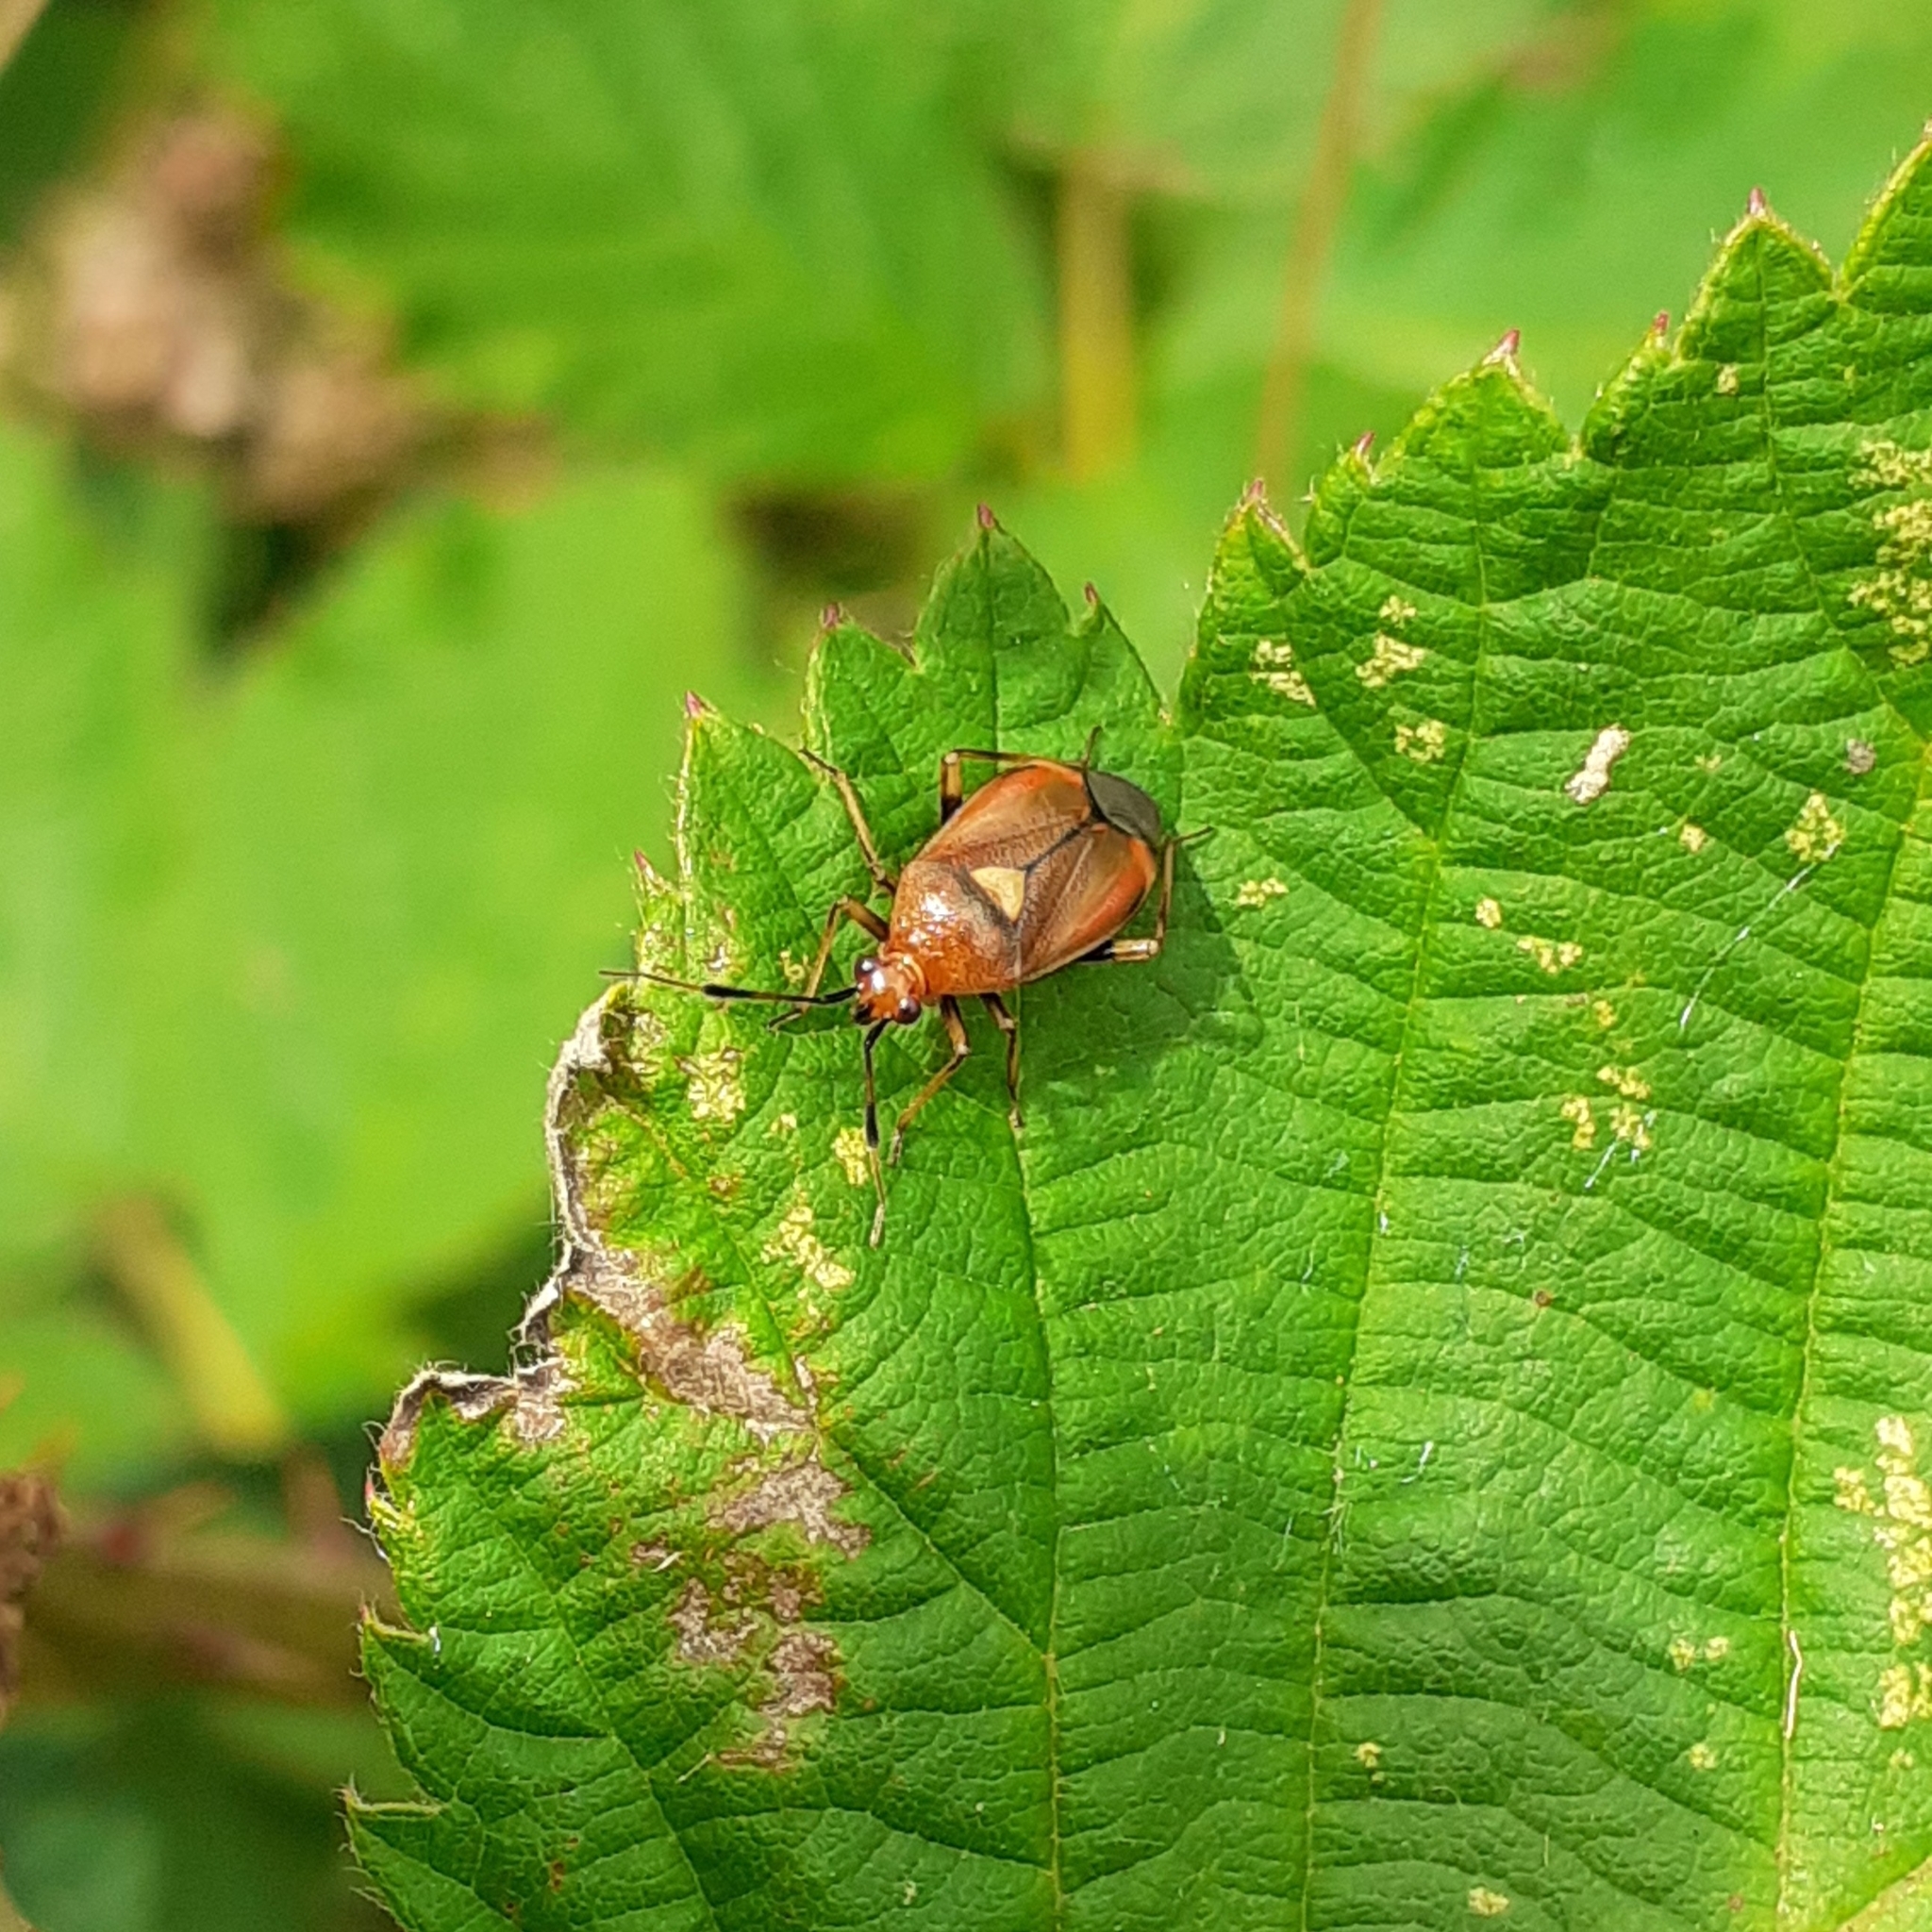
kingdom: Animalia
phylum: Arthropoda
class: Insecta
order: Hemiptera
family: Miridae
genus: Deraeocoris
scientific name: Deraeocoris ruber
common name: Plant bug
